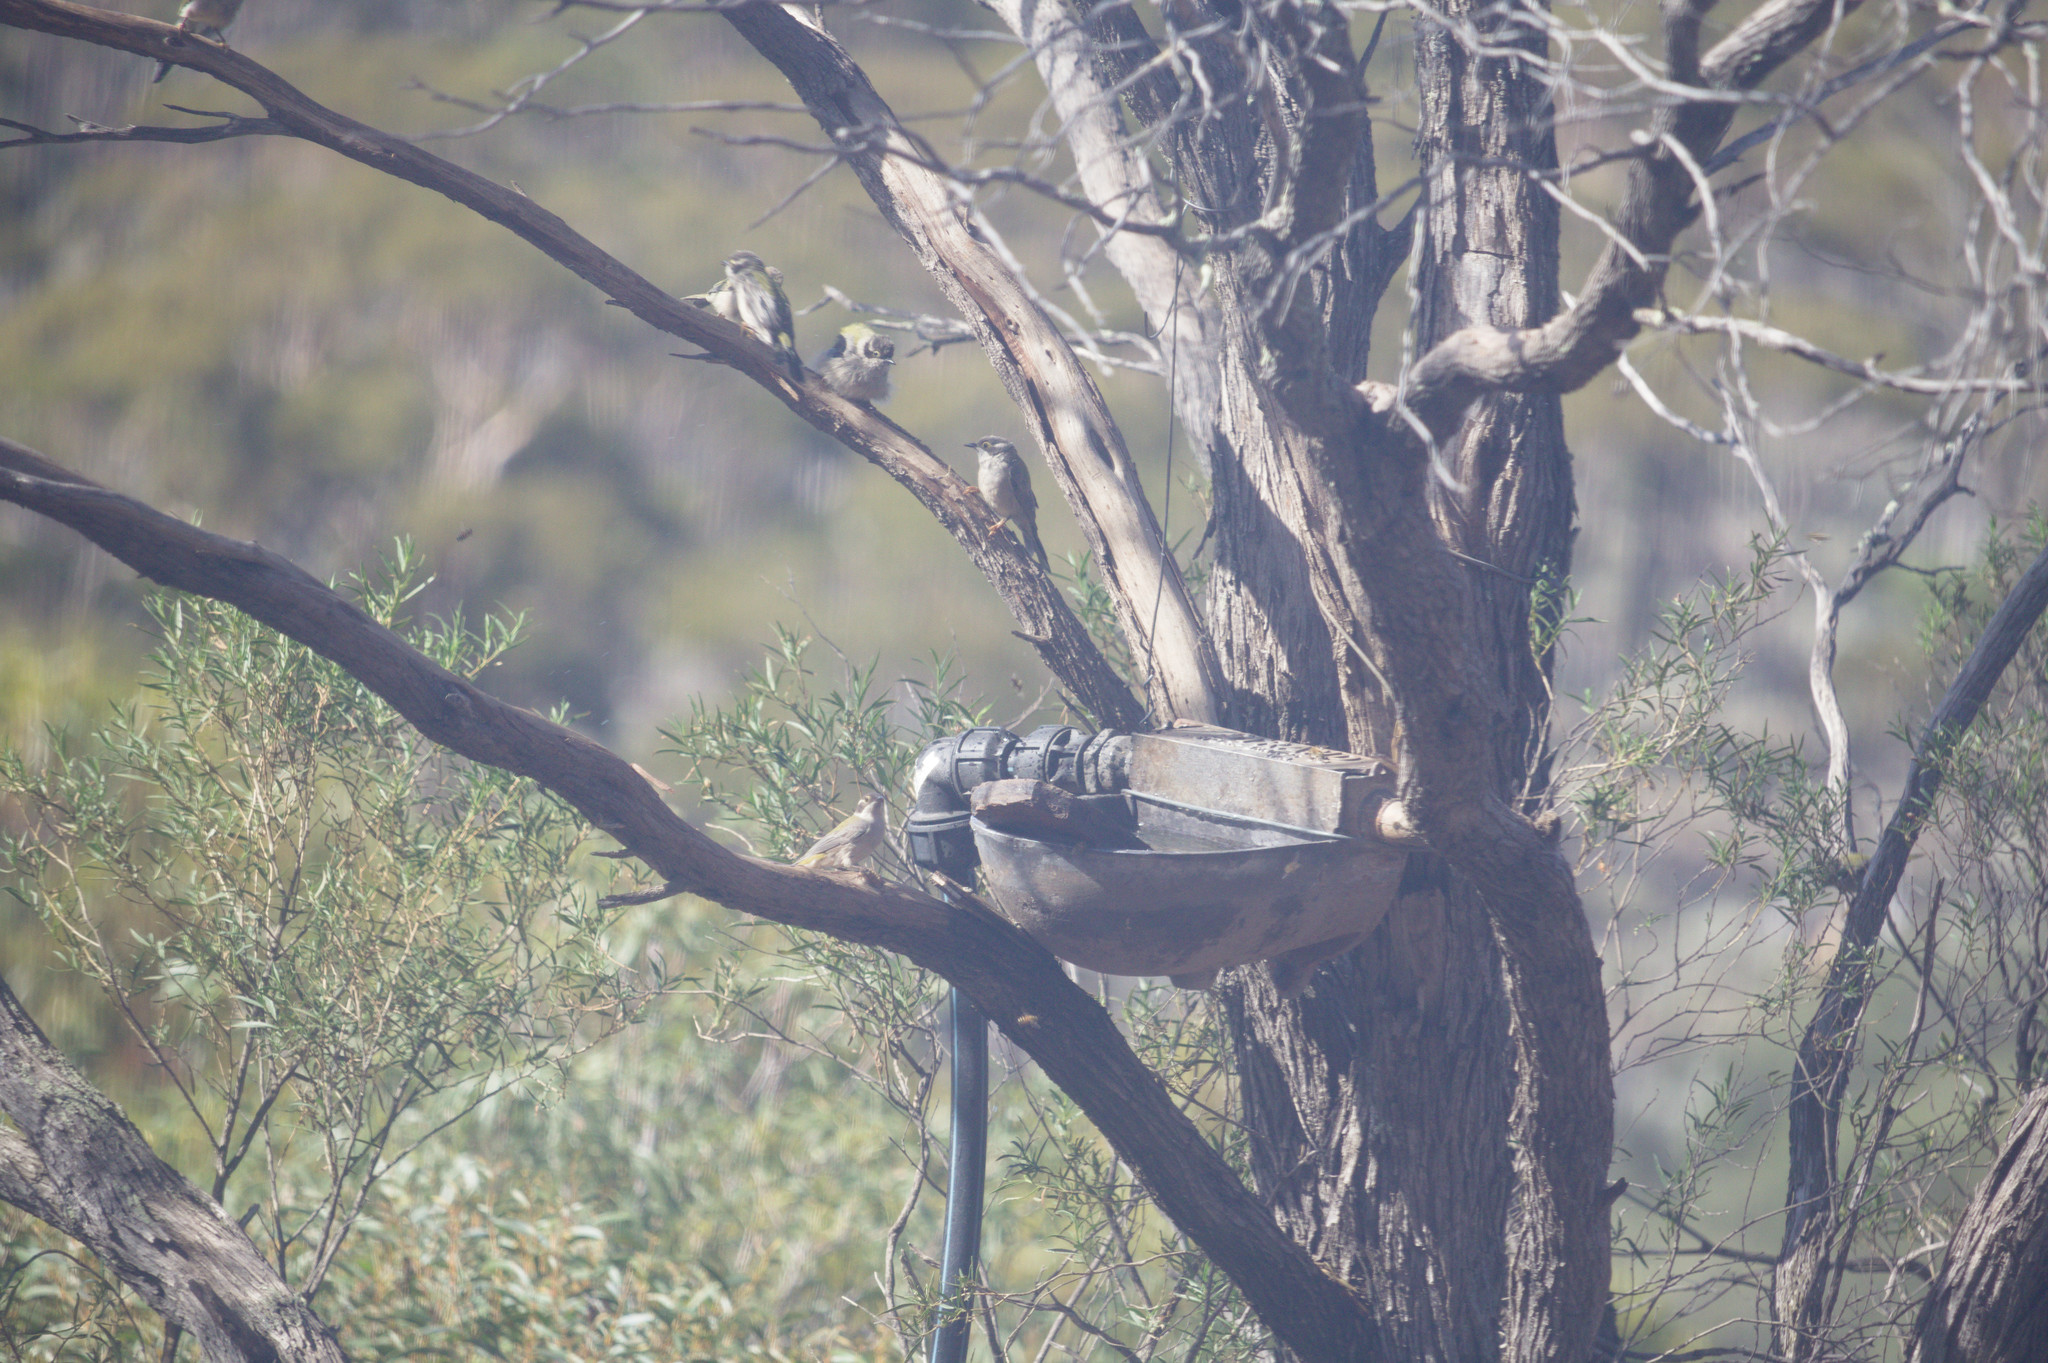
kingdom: Animalia
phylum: Chordata
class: Aves
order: Passeriformes
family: Meliphagidae
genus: Melithreptus
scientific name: Melithreptus brevirostris
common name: Brown-headed honeyeater
